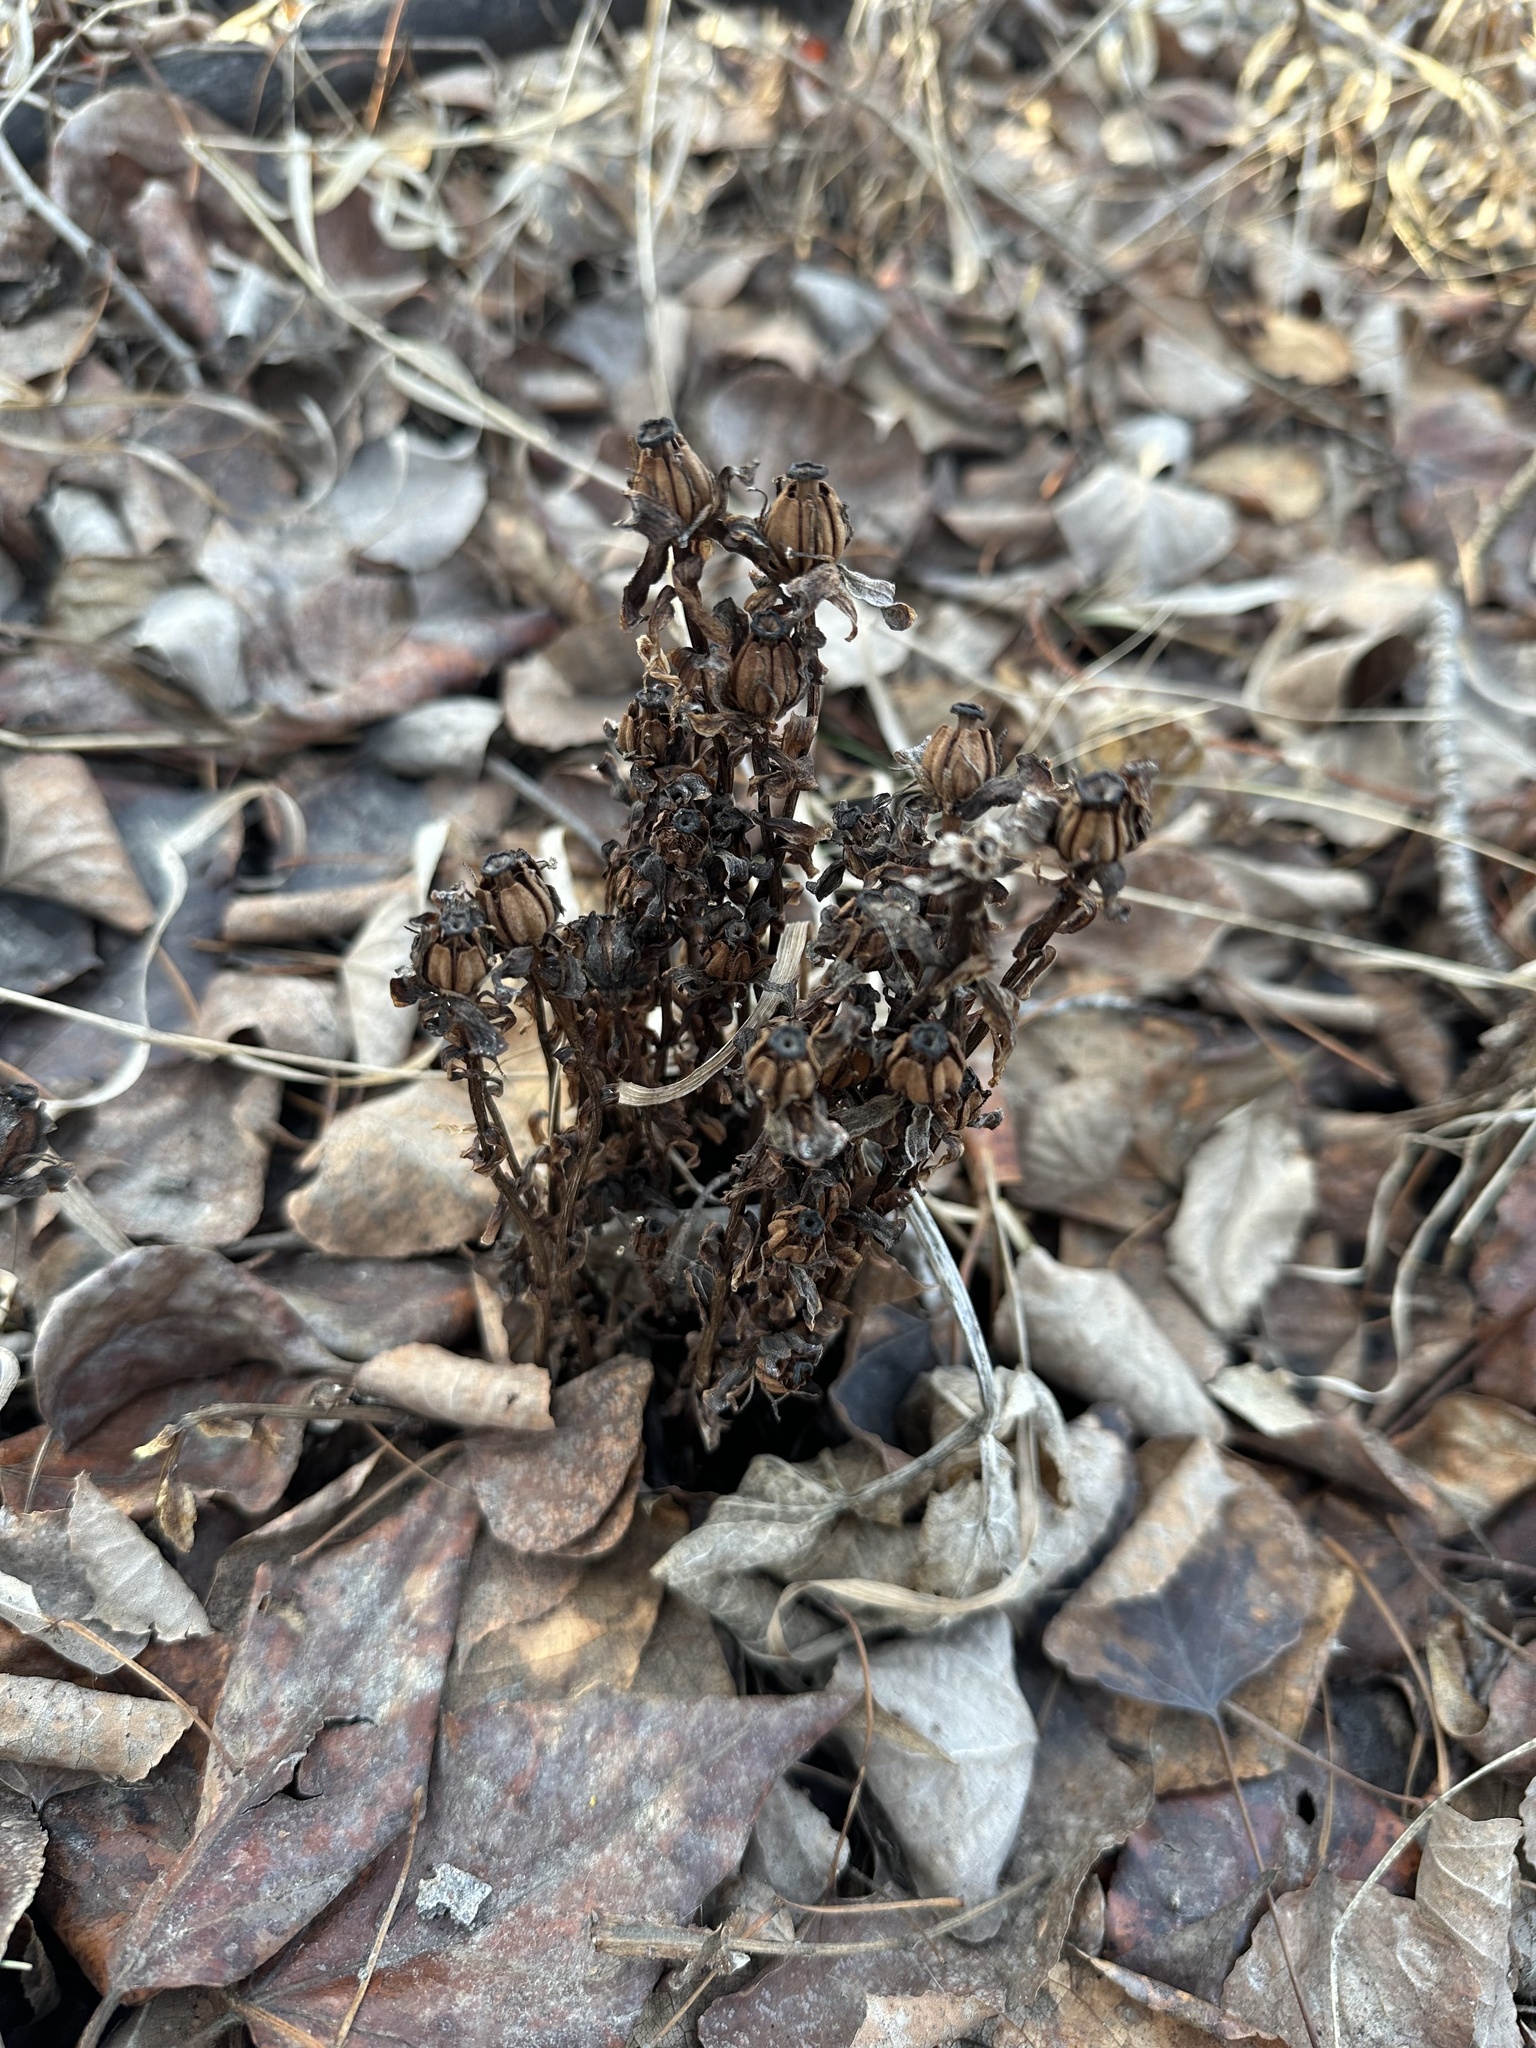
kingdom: Plantae
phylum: Tracheophyta
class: Magnoliopsida
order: Ericales
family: Ericaceae
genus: Monotropa
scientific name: Monotropa uniflora
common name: Convulsion root
